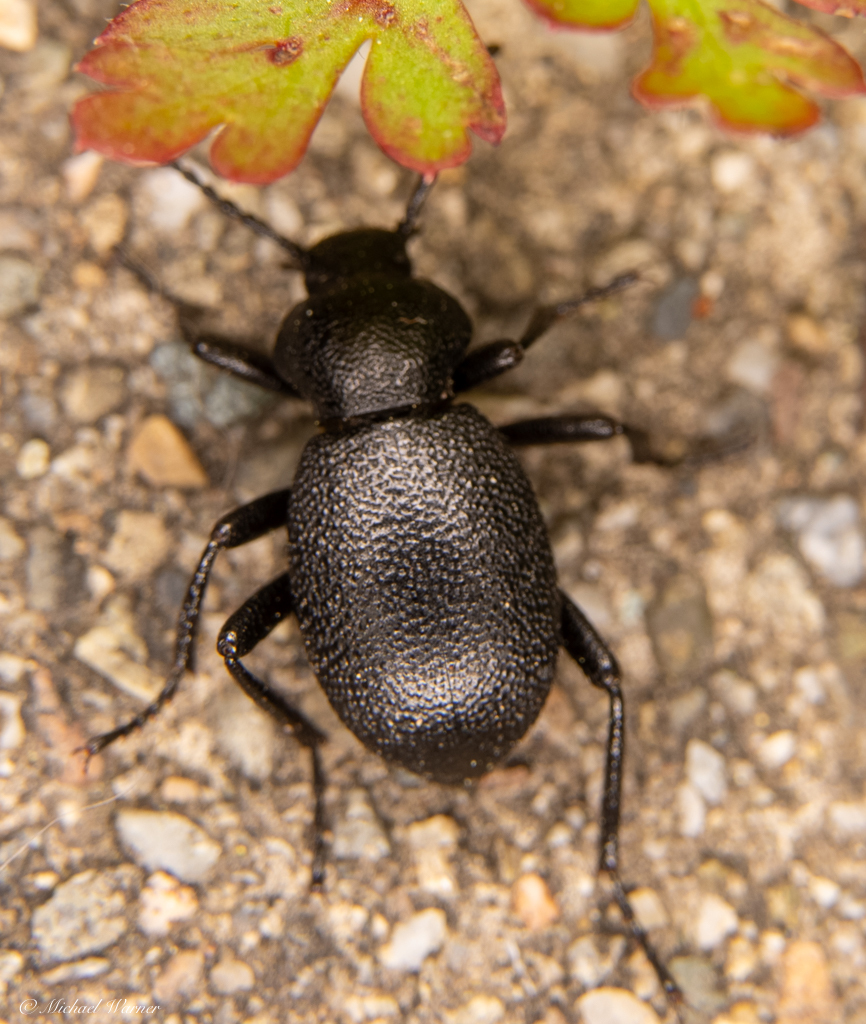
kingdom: Animalia
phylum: Arthropoda
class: Insecta
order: Coleoptera
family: Tenebrionidae
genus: Eleodes
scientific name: Eleodes cordata
